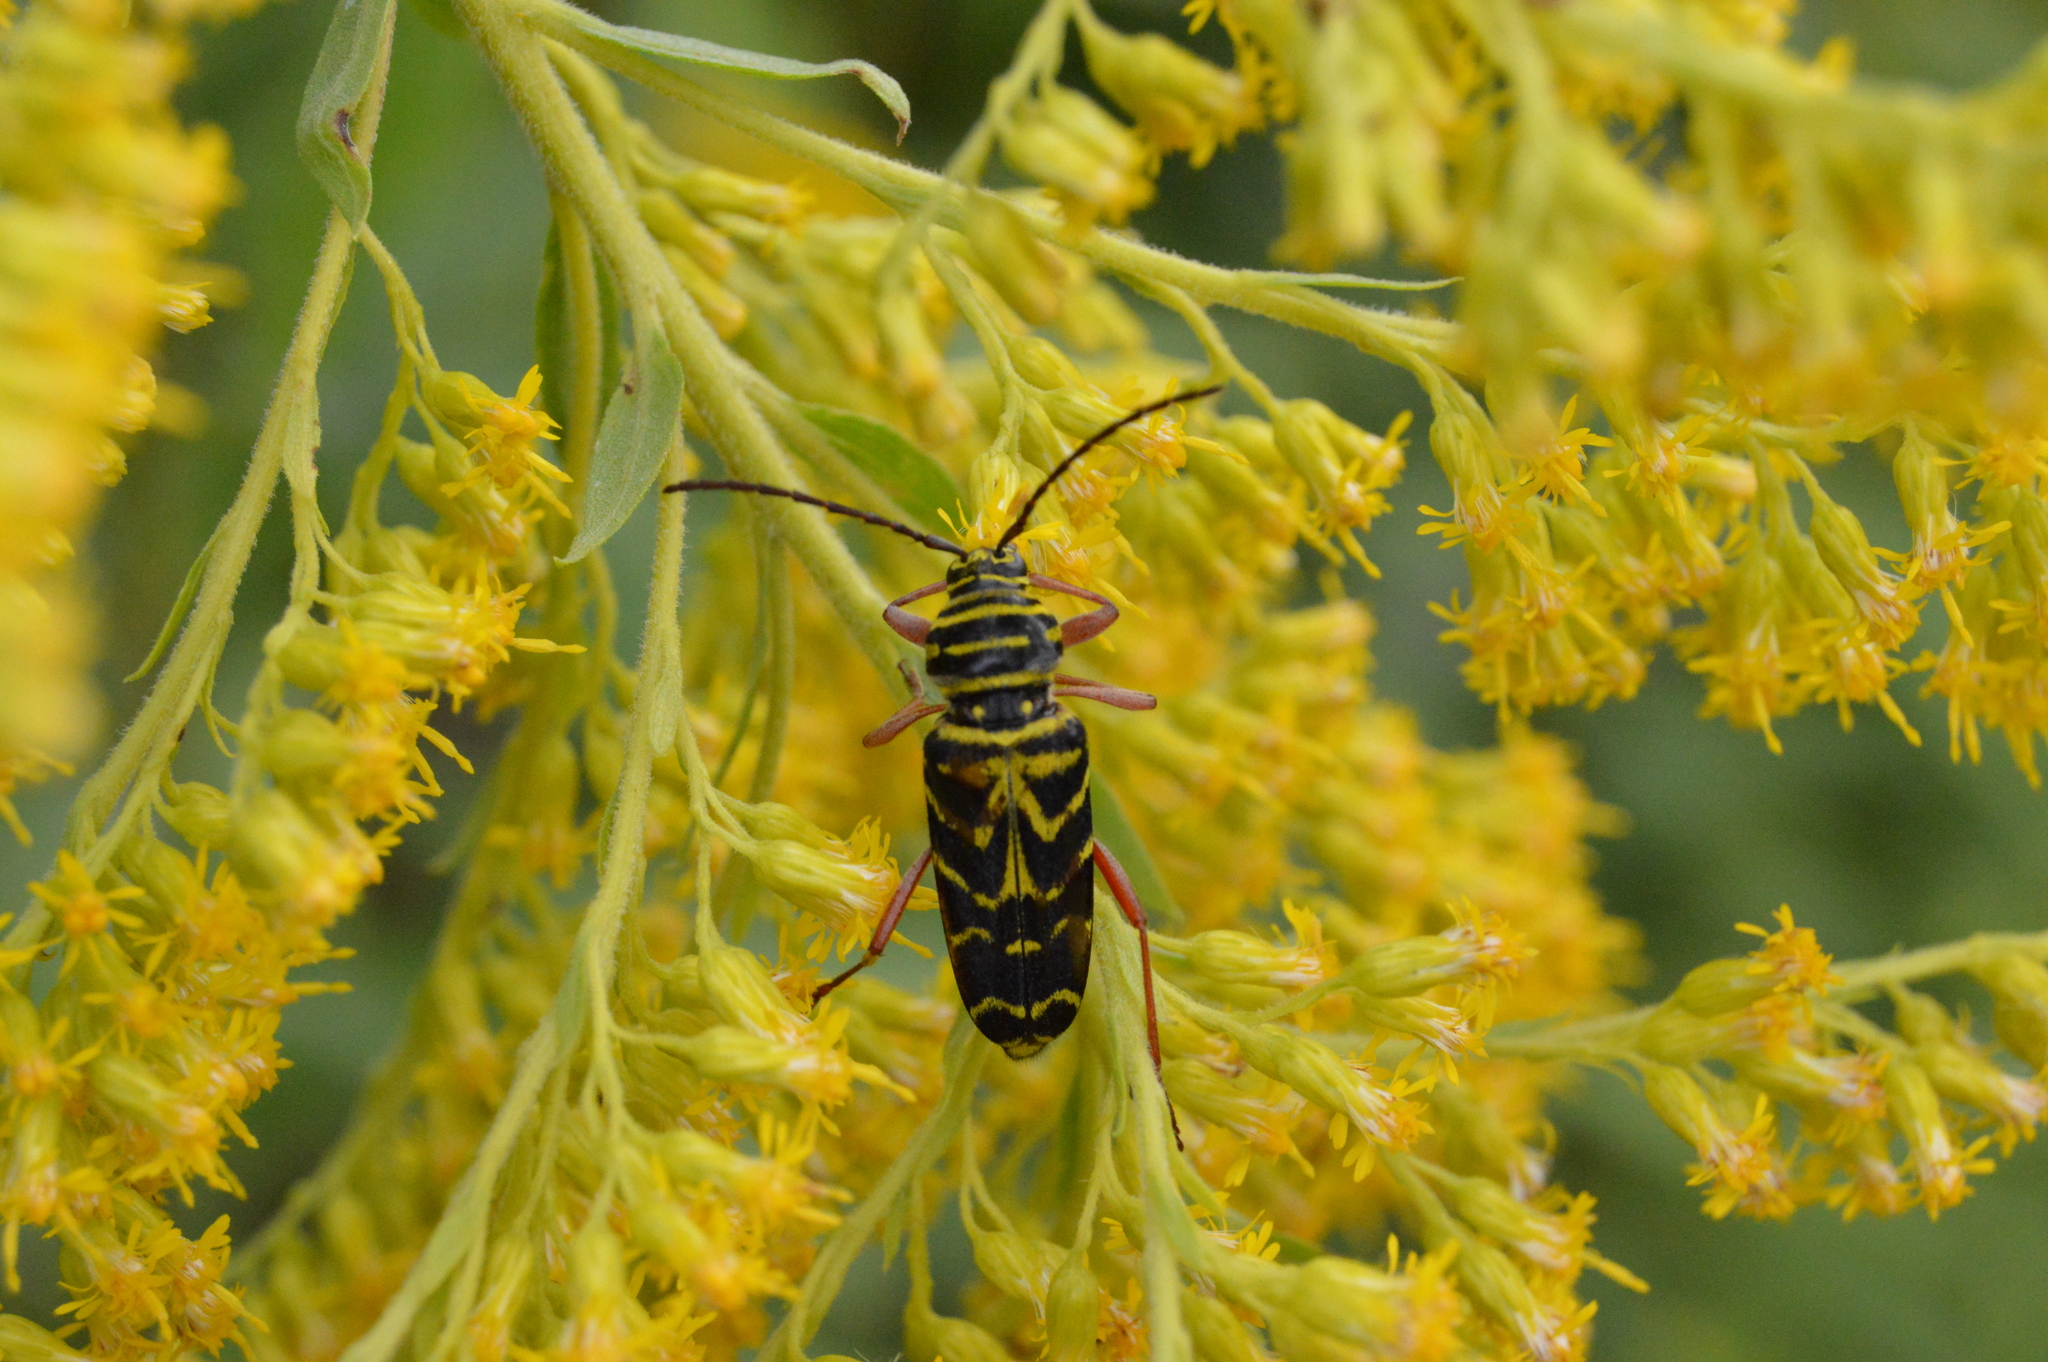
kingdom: Animalia
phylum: Arthropoda
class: Insecta
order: Coleoptera
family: Cerambycidae
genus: Megacyllene
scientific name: Megacyllene robiniae
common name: Locust borer
